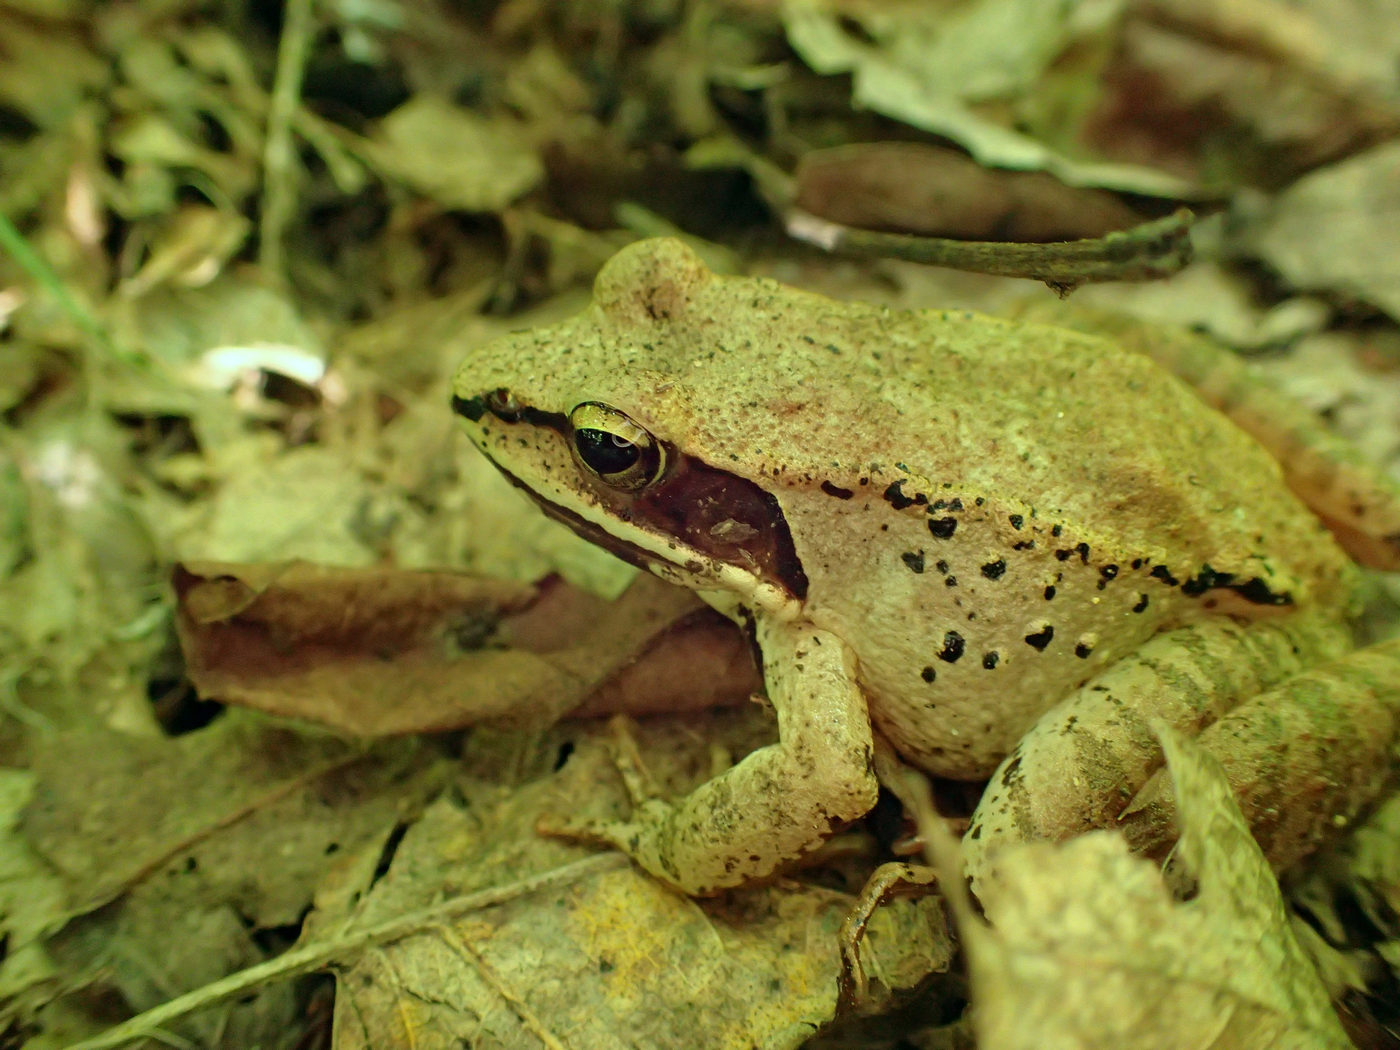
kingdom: Animalia
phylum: Chordata
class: Amphibia
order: Anura
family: Ranidae
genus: Lithobates
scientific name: Lithobates sylvaticus
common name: Wood frog
